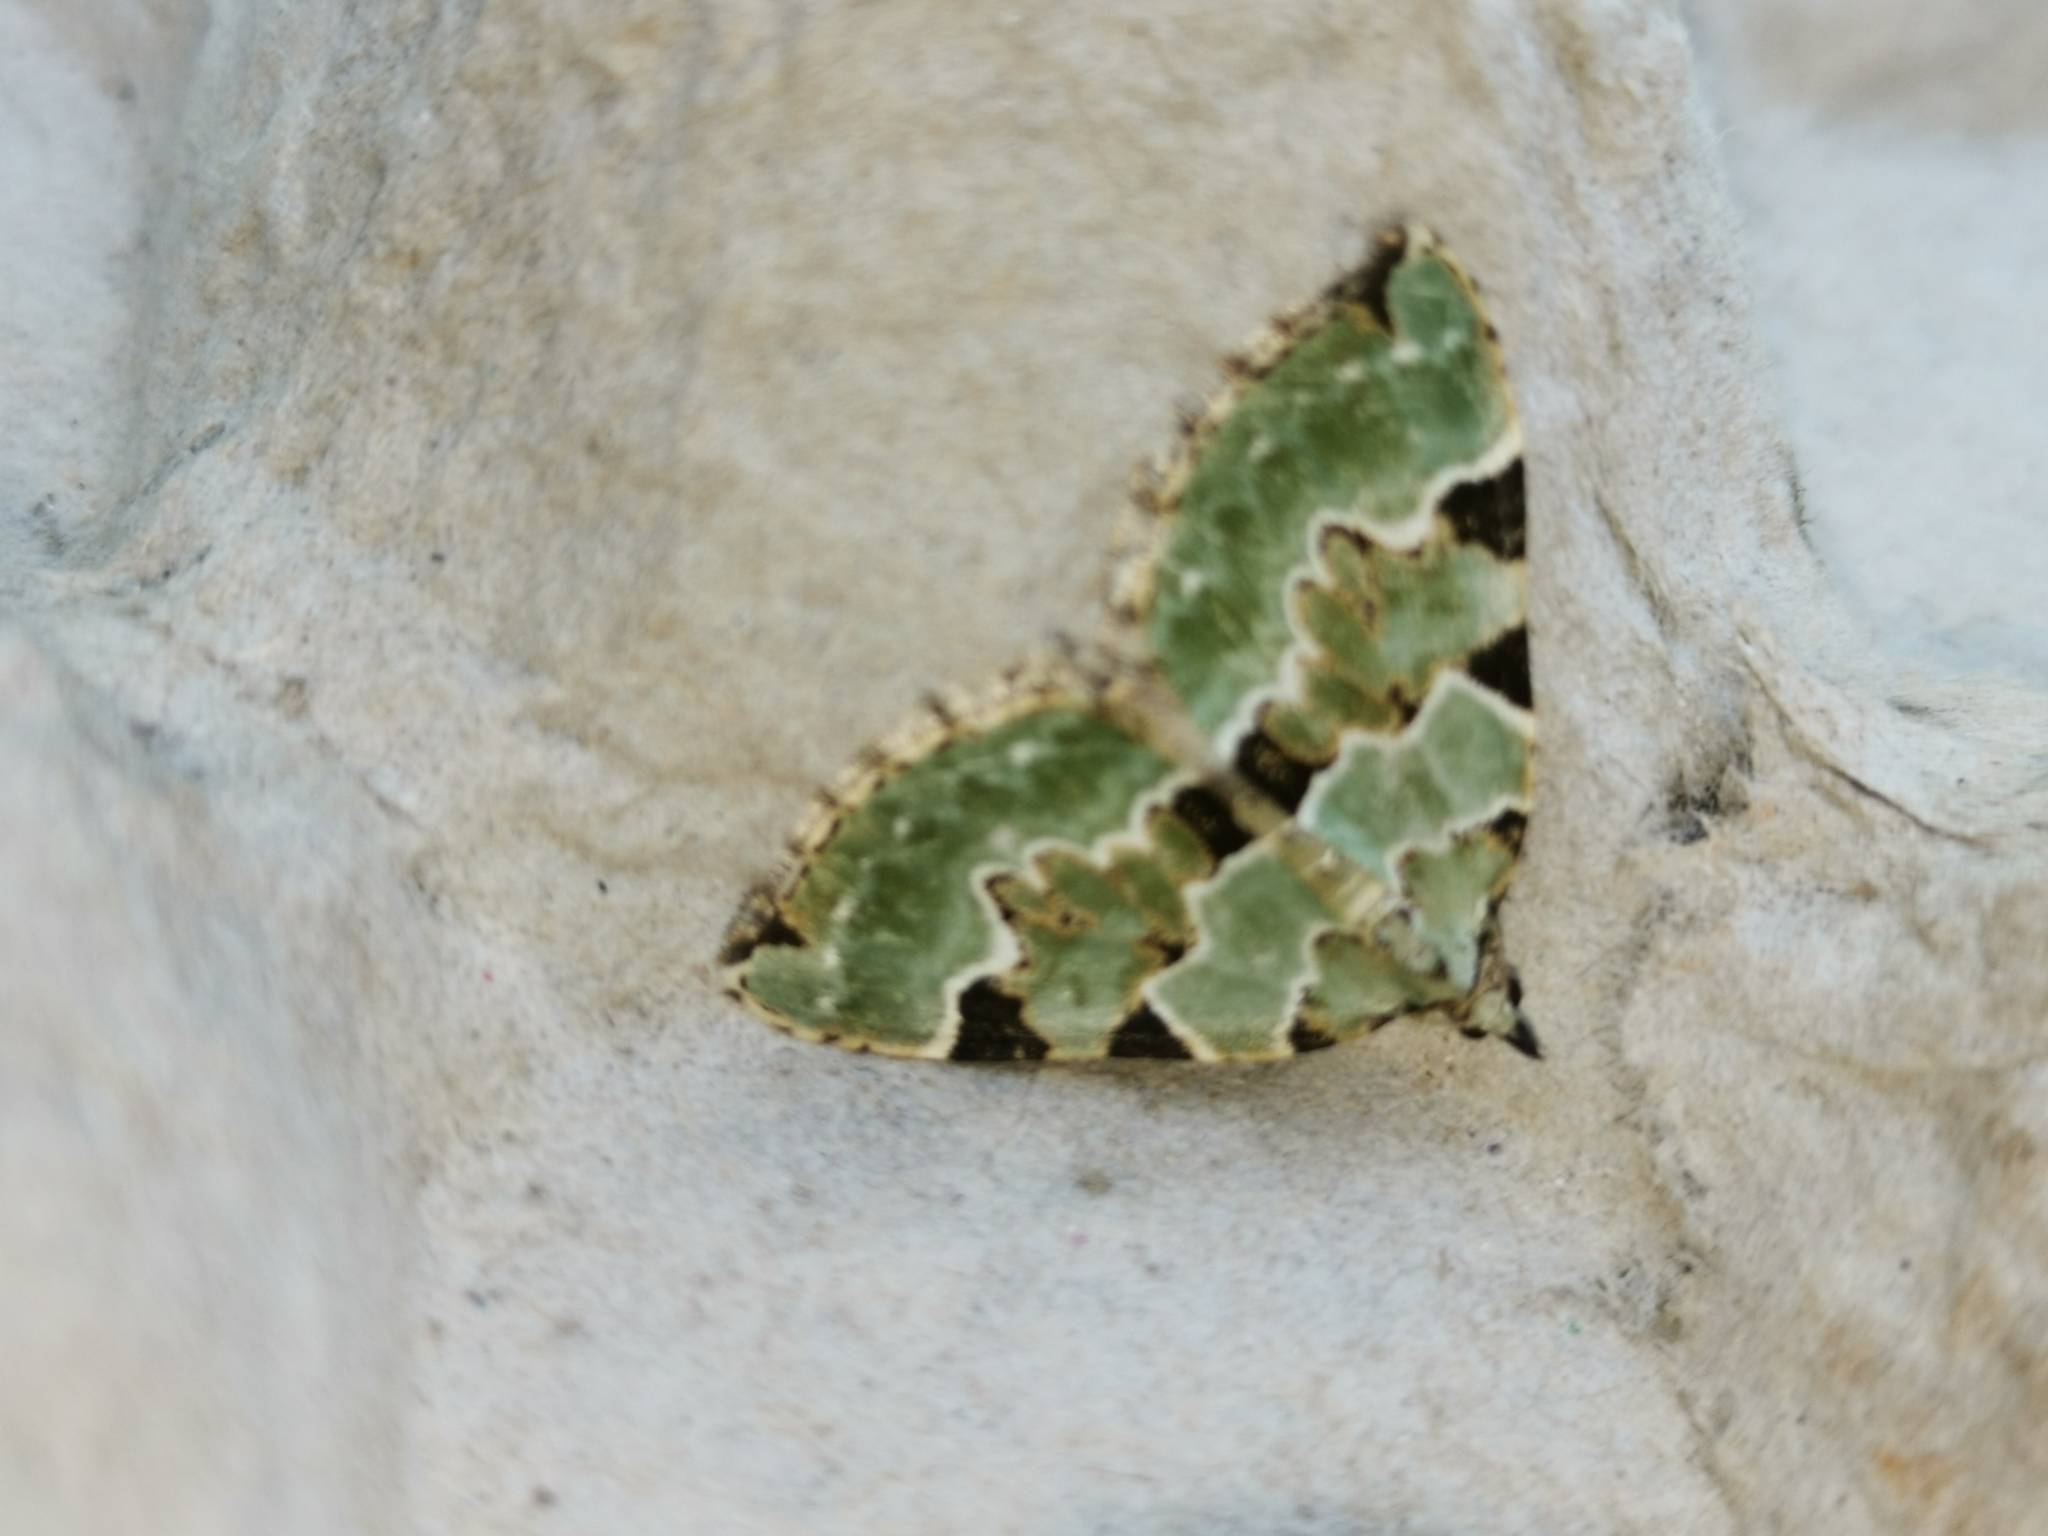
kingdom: Animalia
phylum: Arthropoda
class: Insecta
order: Lepidoptera
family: Geometridae
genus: Colostygia
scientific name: Colostygia pectinataria
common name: Green carpet
